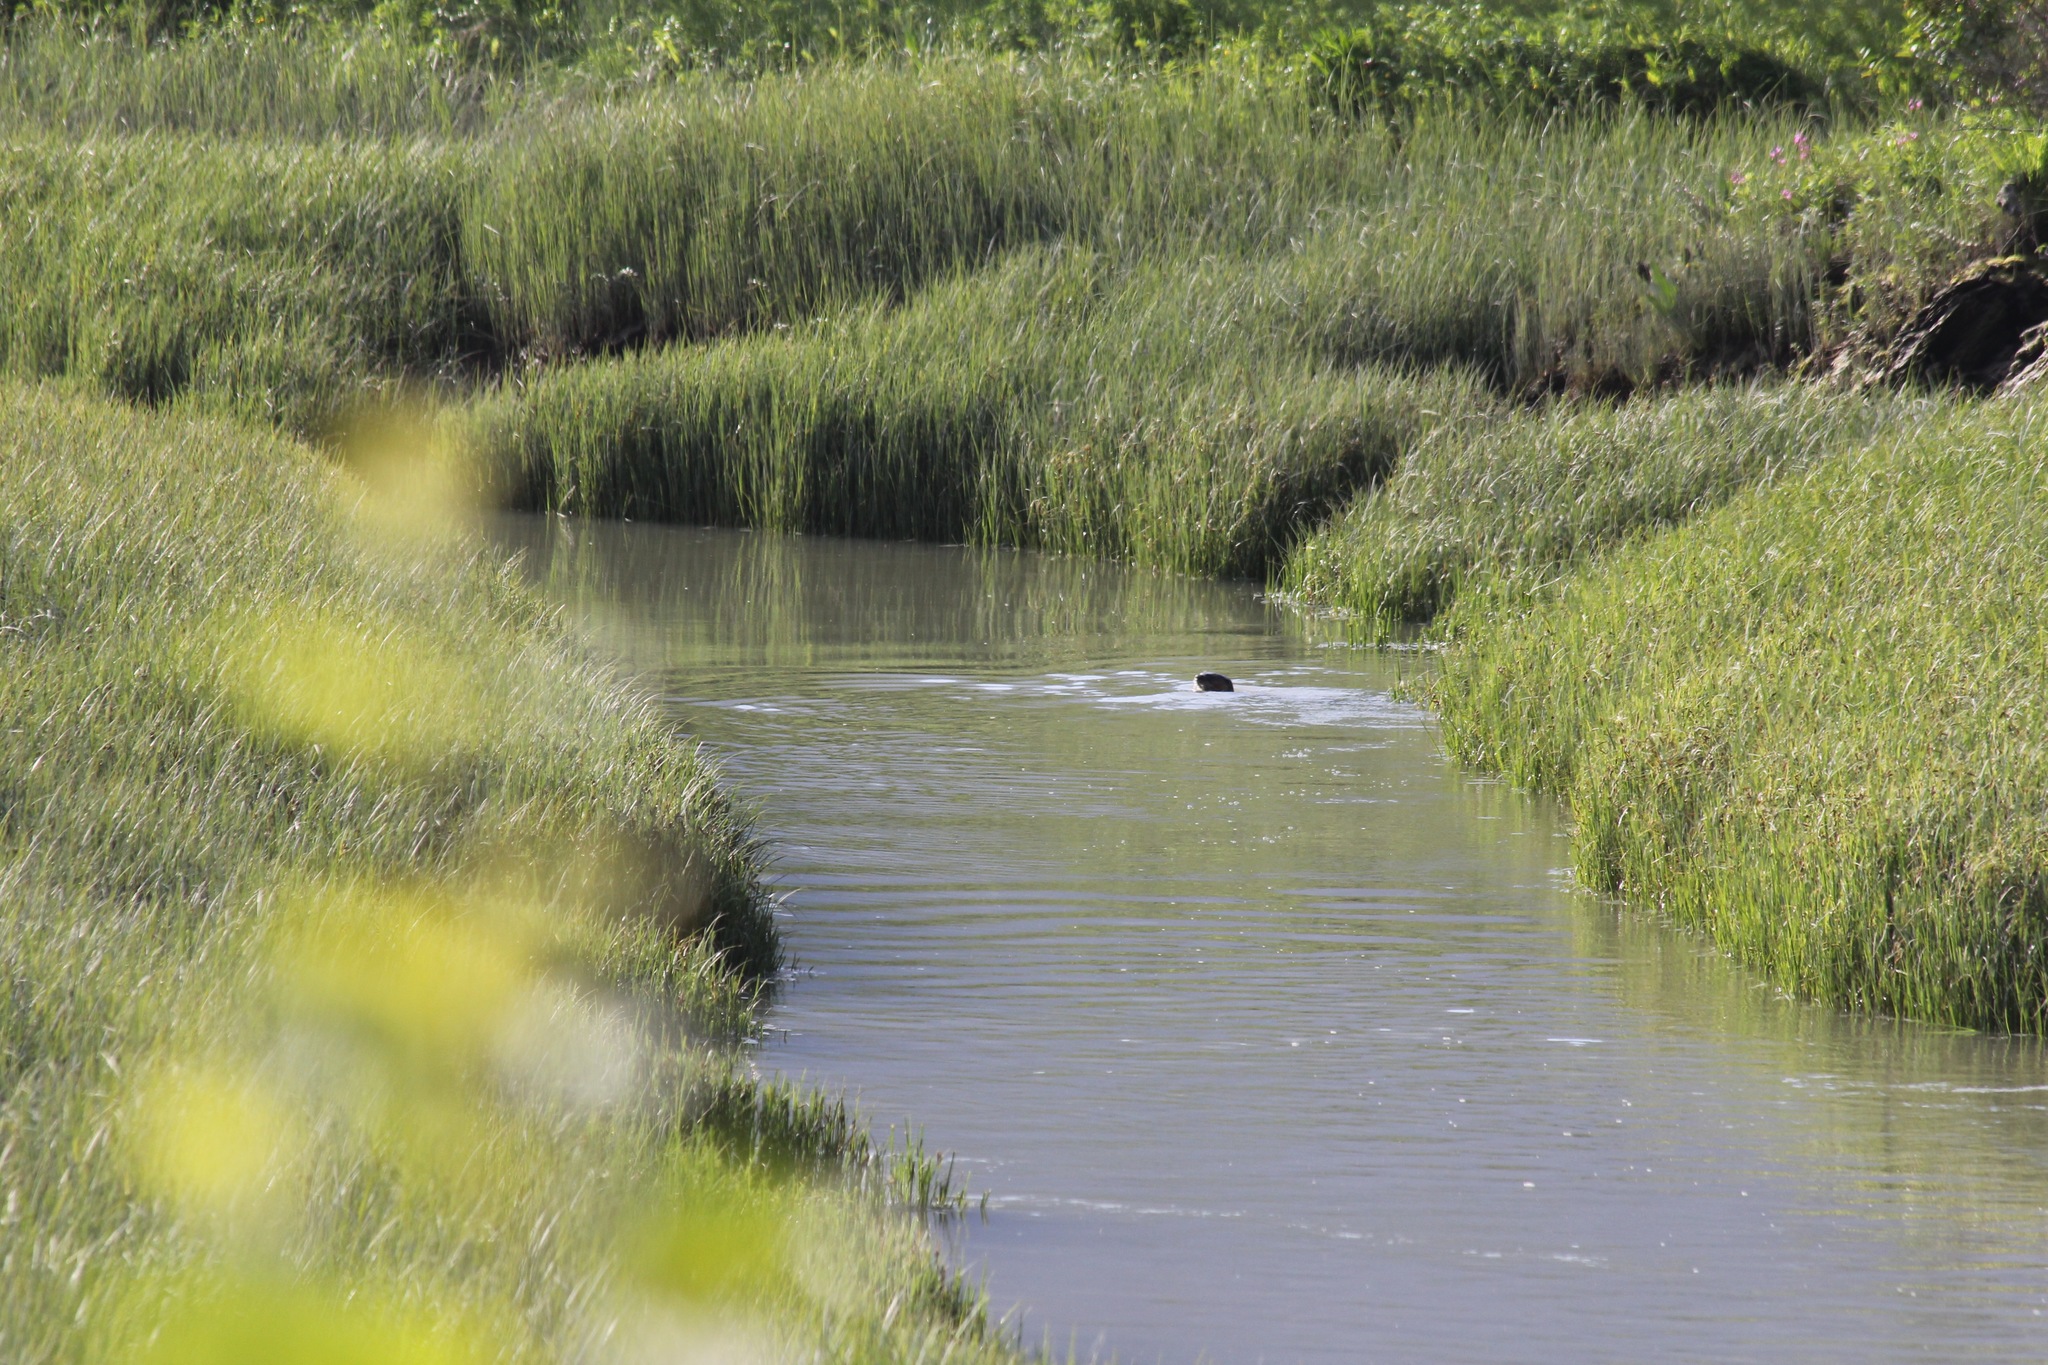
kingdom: Animalia
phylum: Chordata
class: Mammalia
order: Carnivora
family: Mustelidae
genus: Lontra
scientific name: Lontra canadensis
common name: North american river otter
